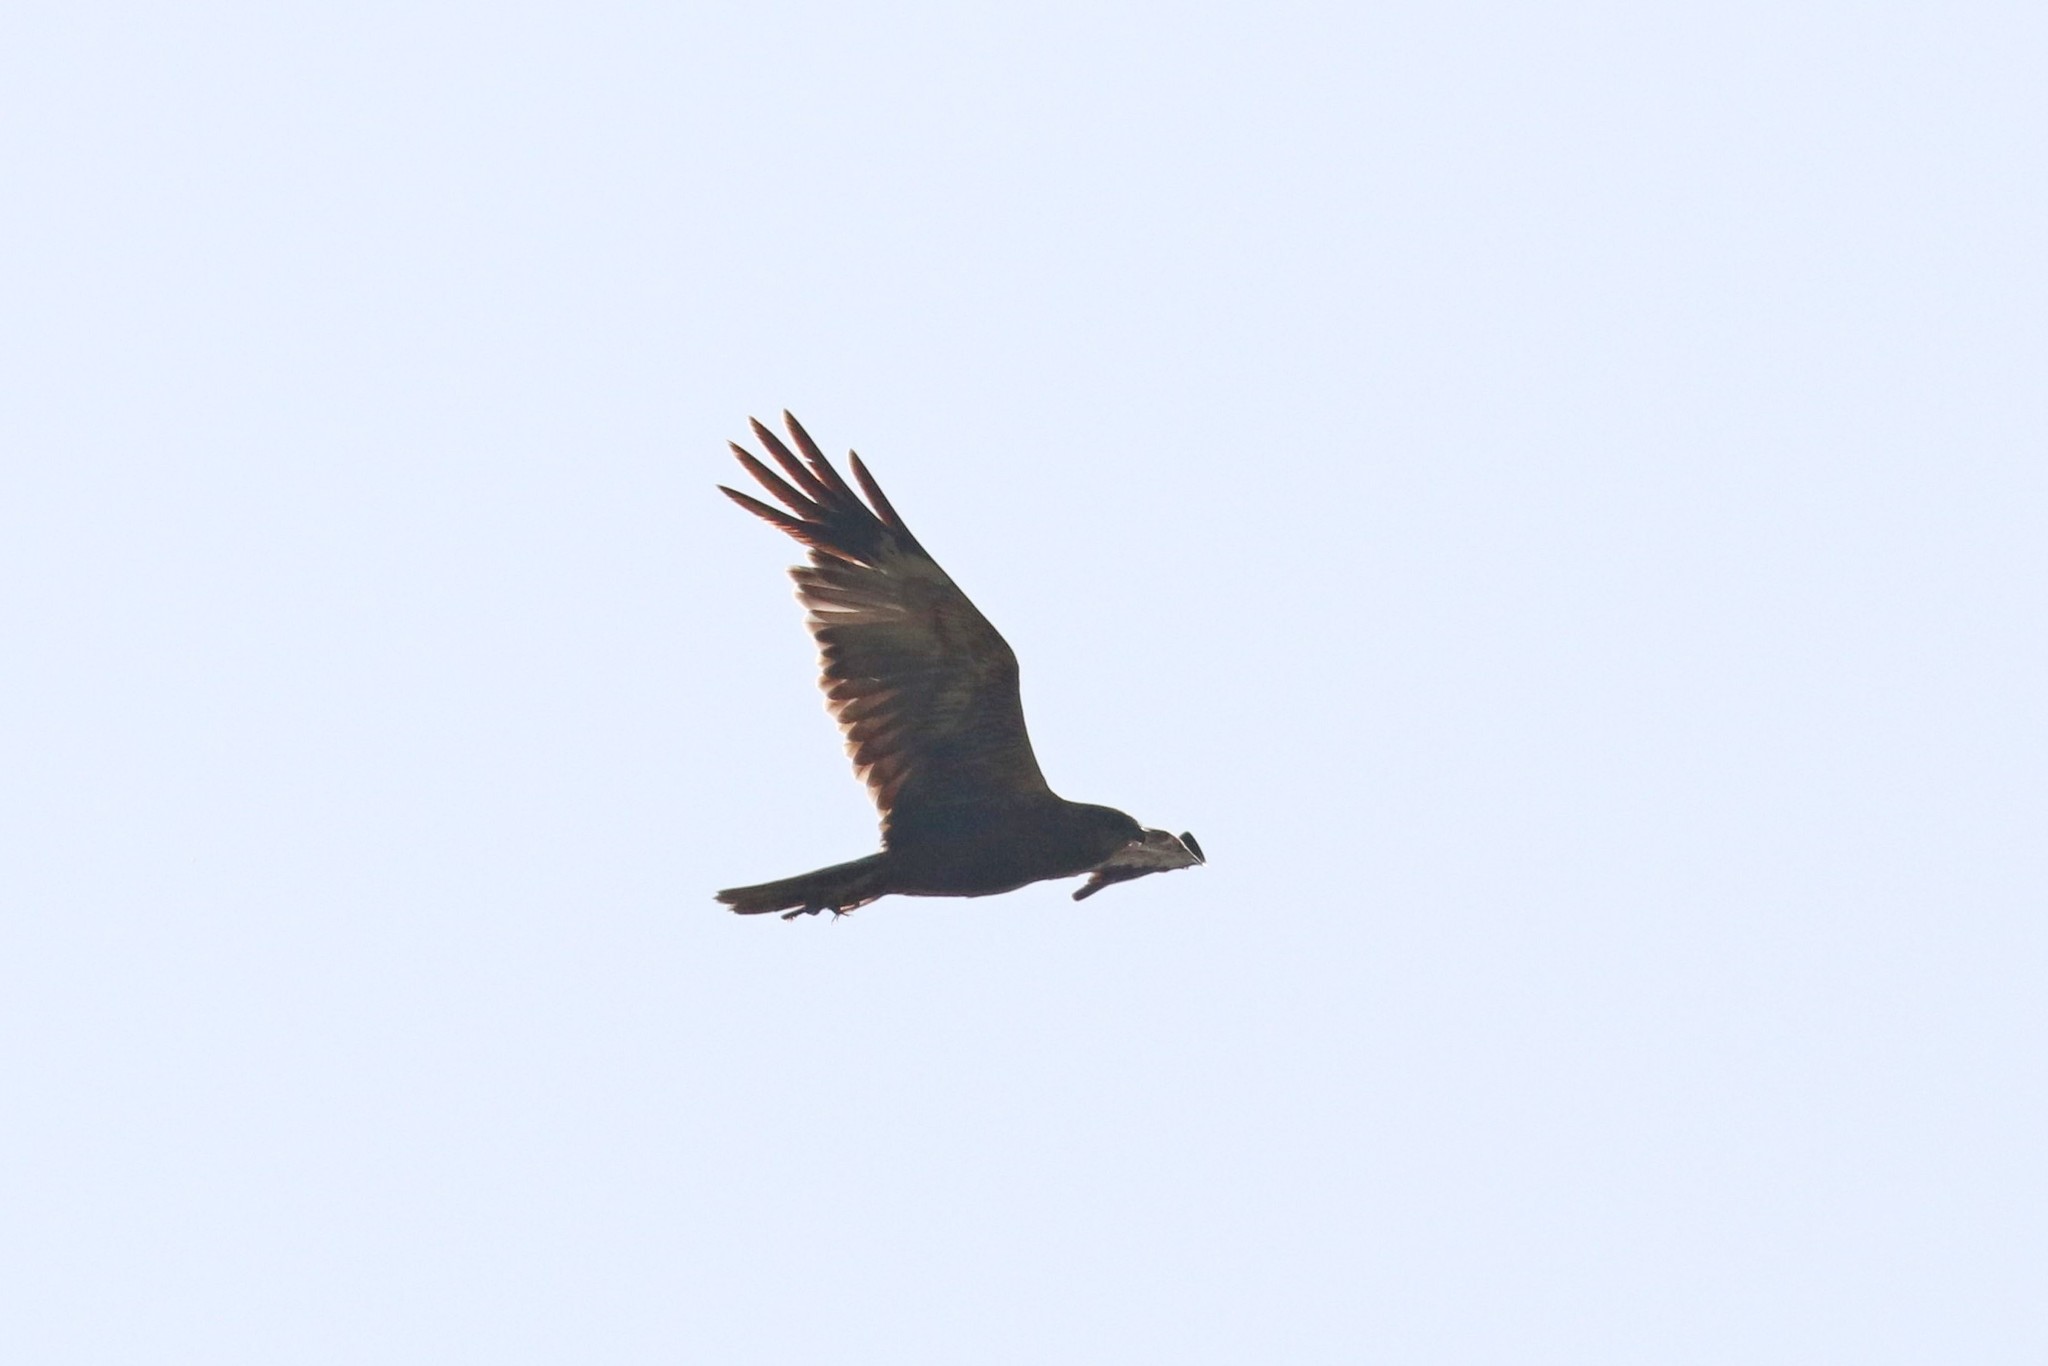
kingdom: Animalia
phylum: Chordata
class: Aves
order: Accipitriformes
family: Accipitridae
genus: Circus
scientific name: Circus aeruginosus
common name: Western marsh harrier
